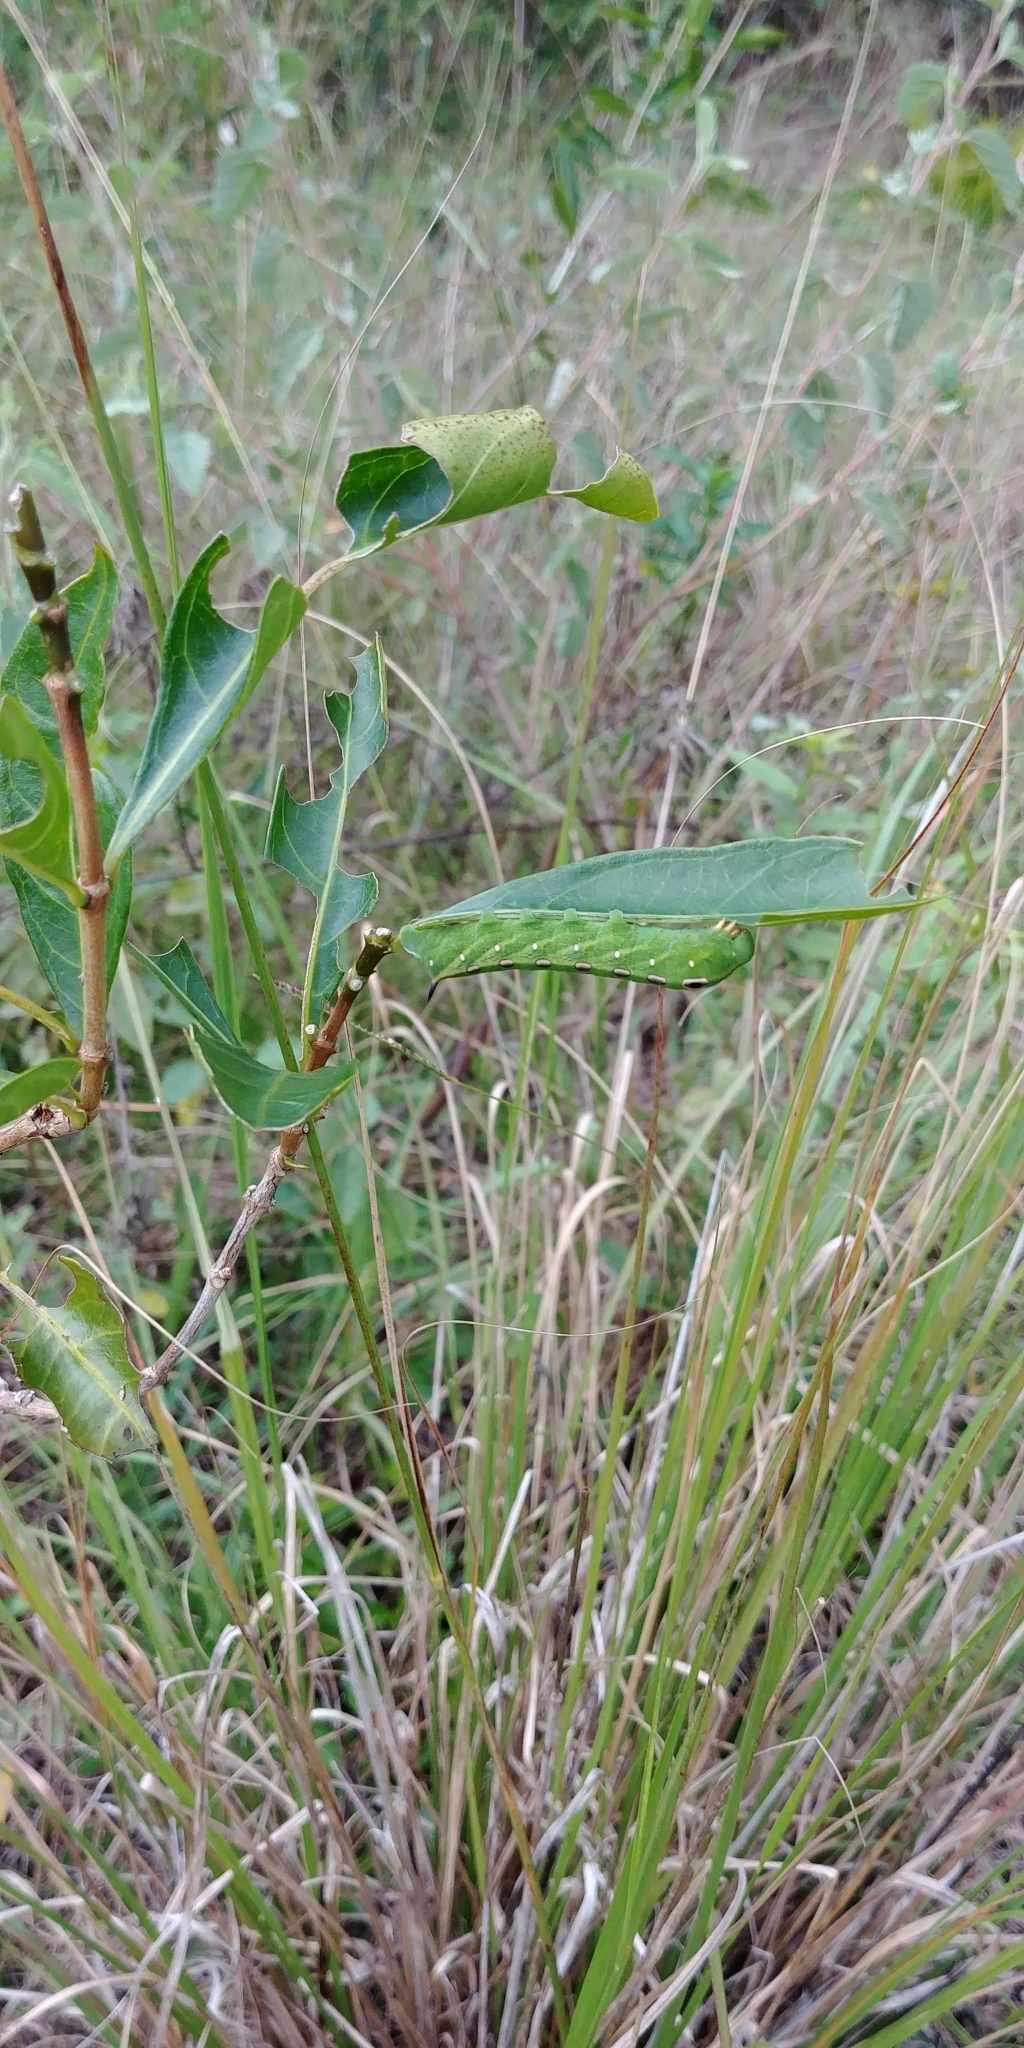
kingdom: Animalia
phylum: Arthropoda
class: Insecta
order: Lepidoptera
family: Sphingidae
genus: Xylophanes
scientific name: Xylophanes tersa
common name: Tersa sphinx
